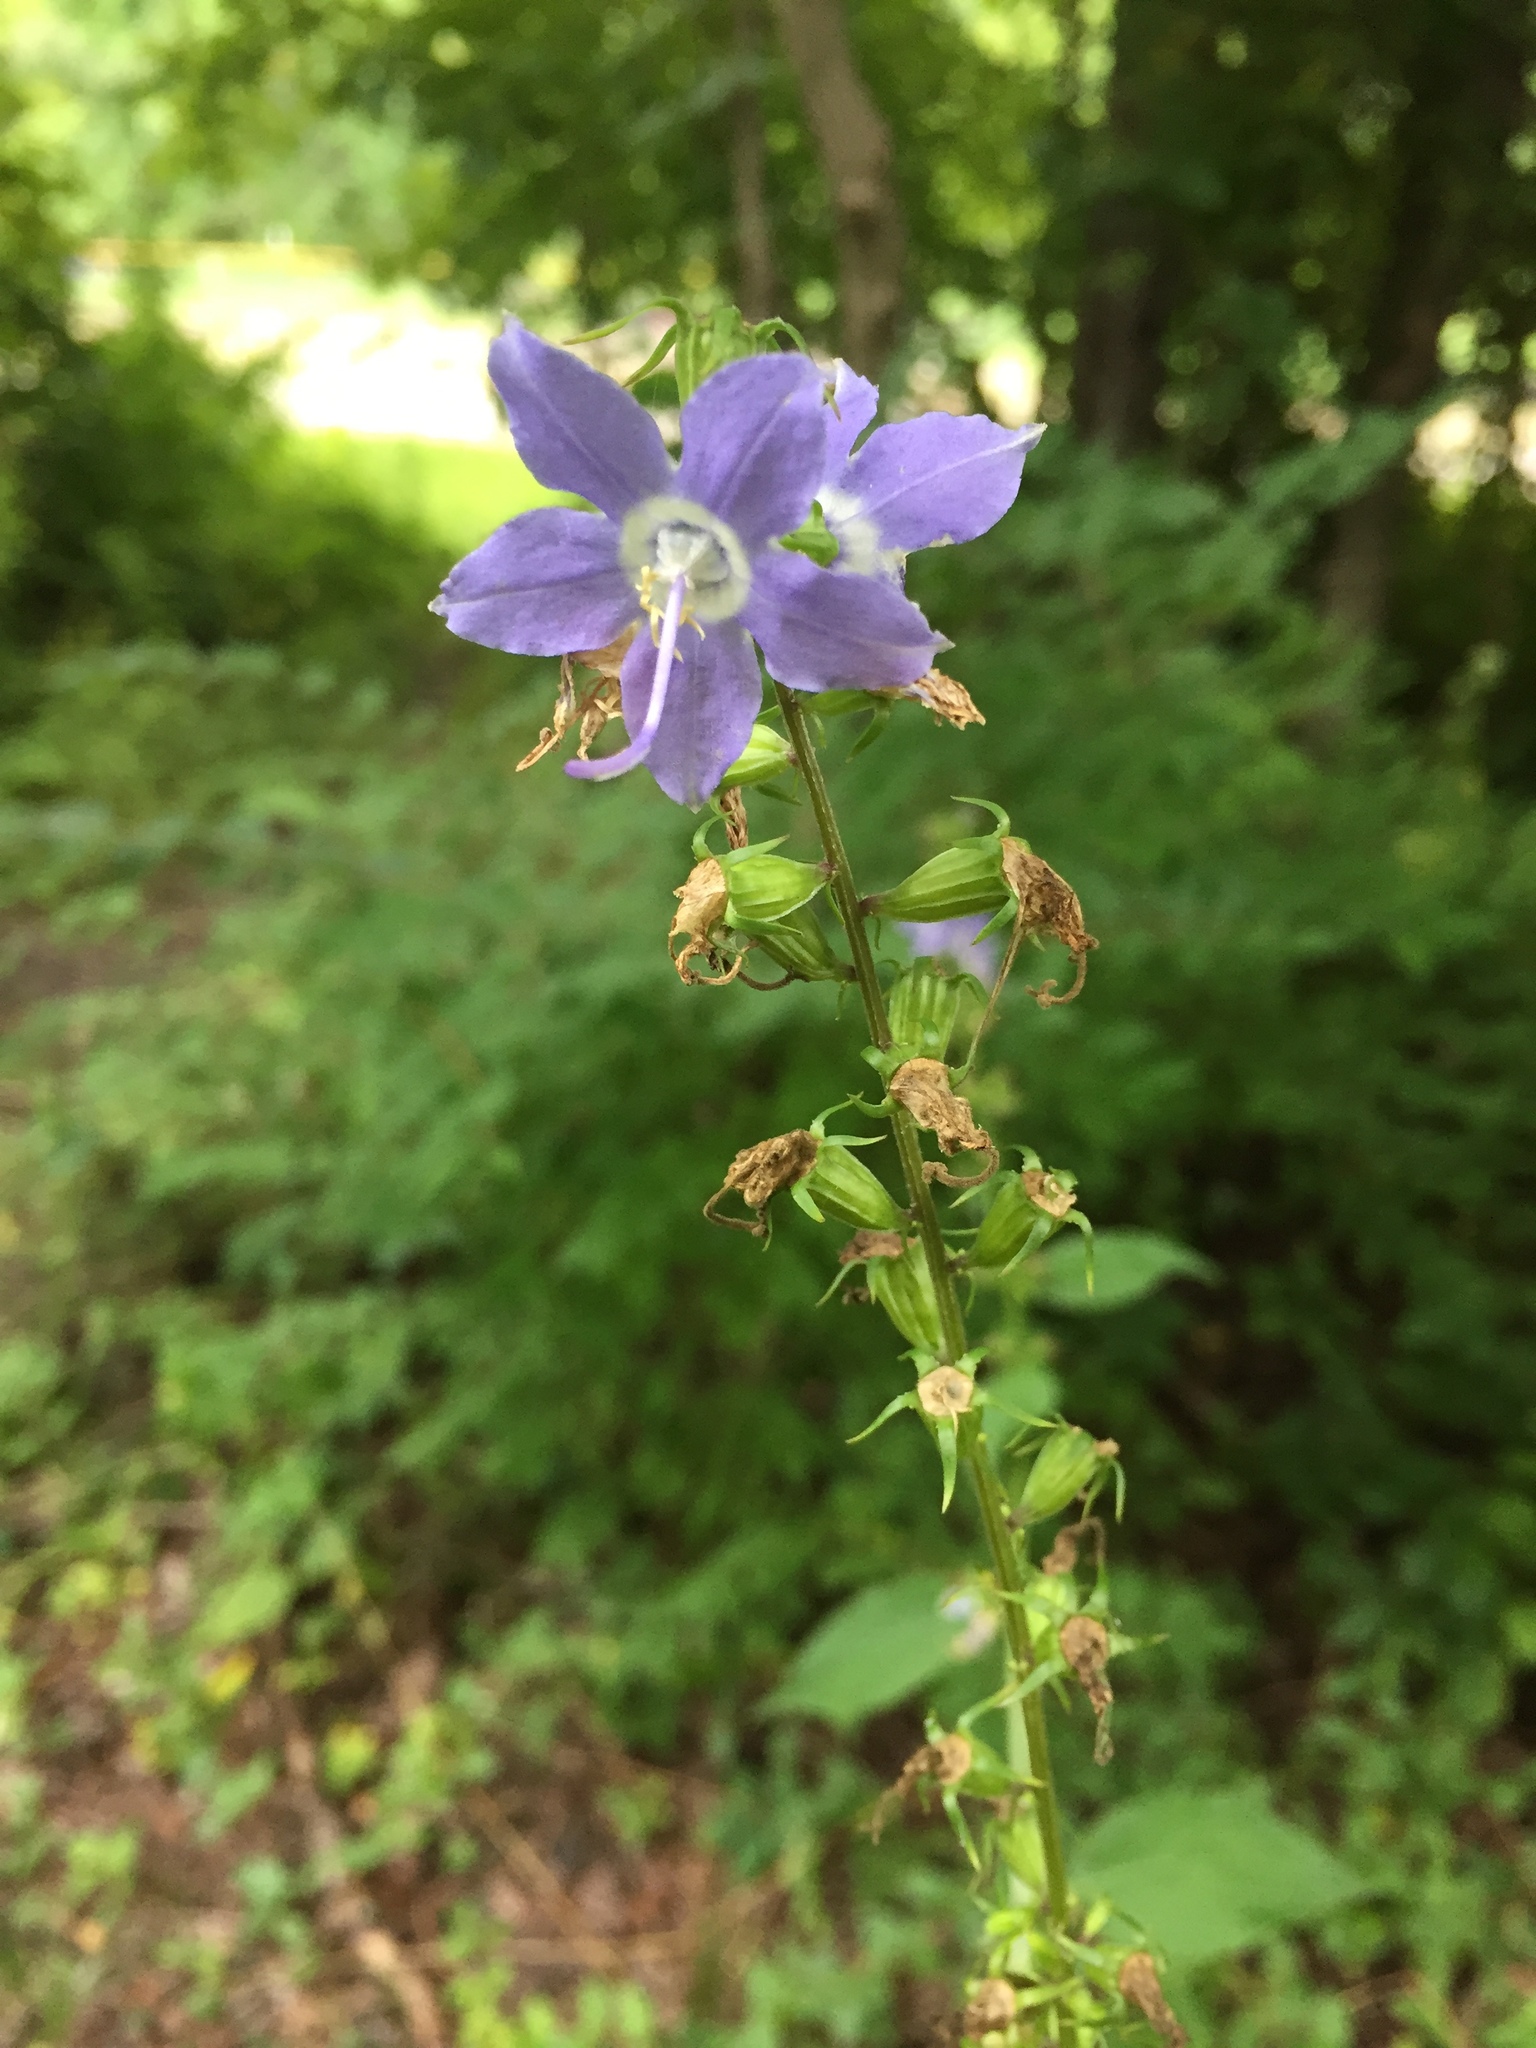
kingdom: Plantae
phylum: Tracheophyta
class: Magnoliopsida
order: Asterales
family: Campanulaceae
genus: Campanulastrum
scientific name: Campanulastrum americanum
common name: American bellflower
